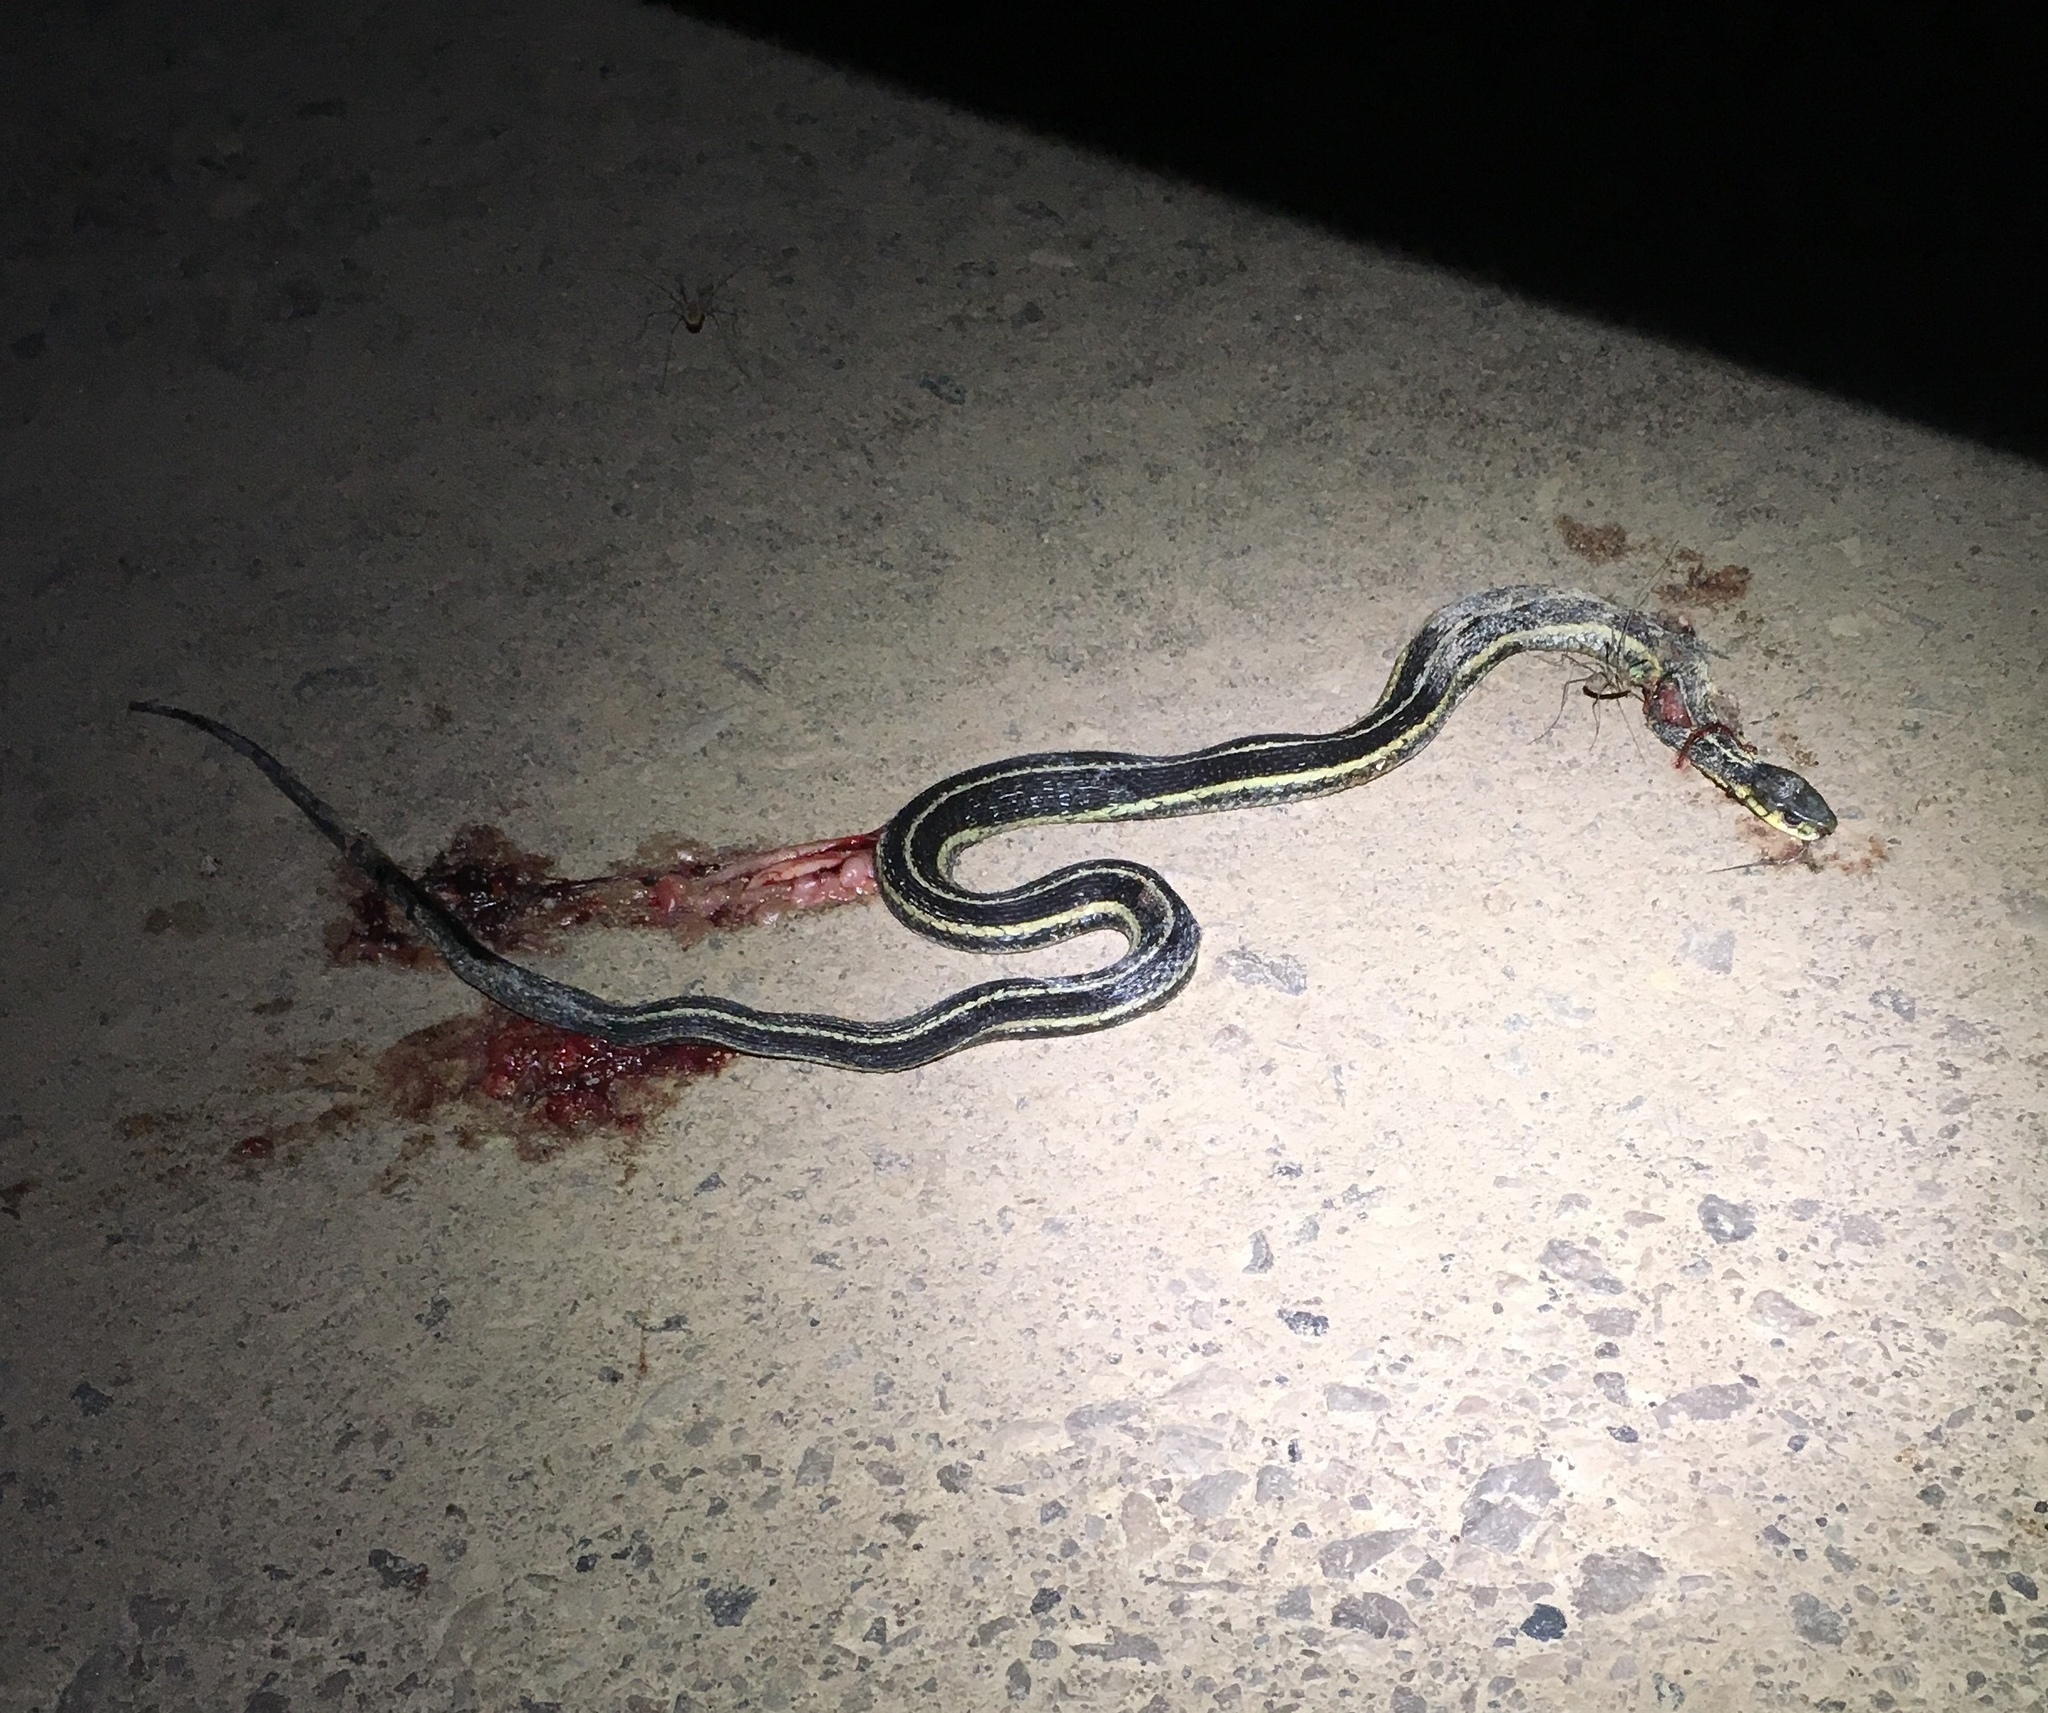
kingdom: Animalia
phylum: Chordata
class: Squamata
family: Colubridae
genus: Thamnophis
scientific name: Thamnophis sirtalis
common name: Common garter snake
